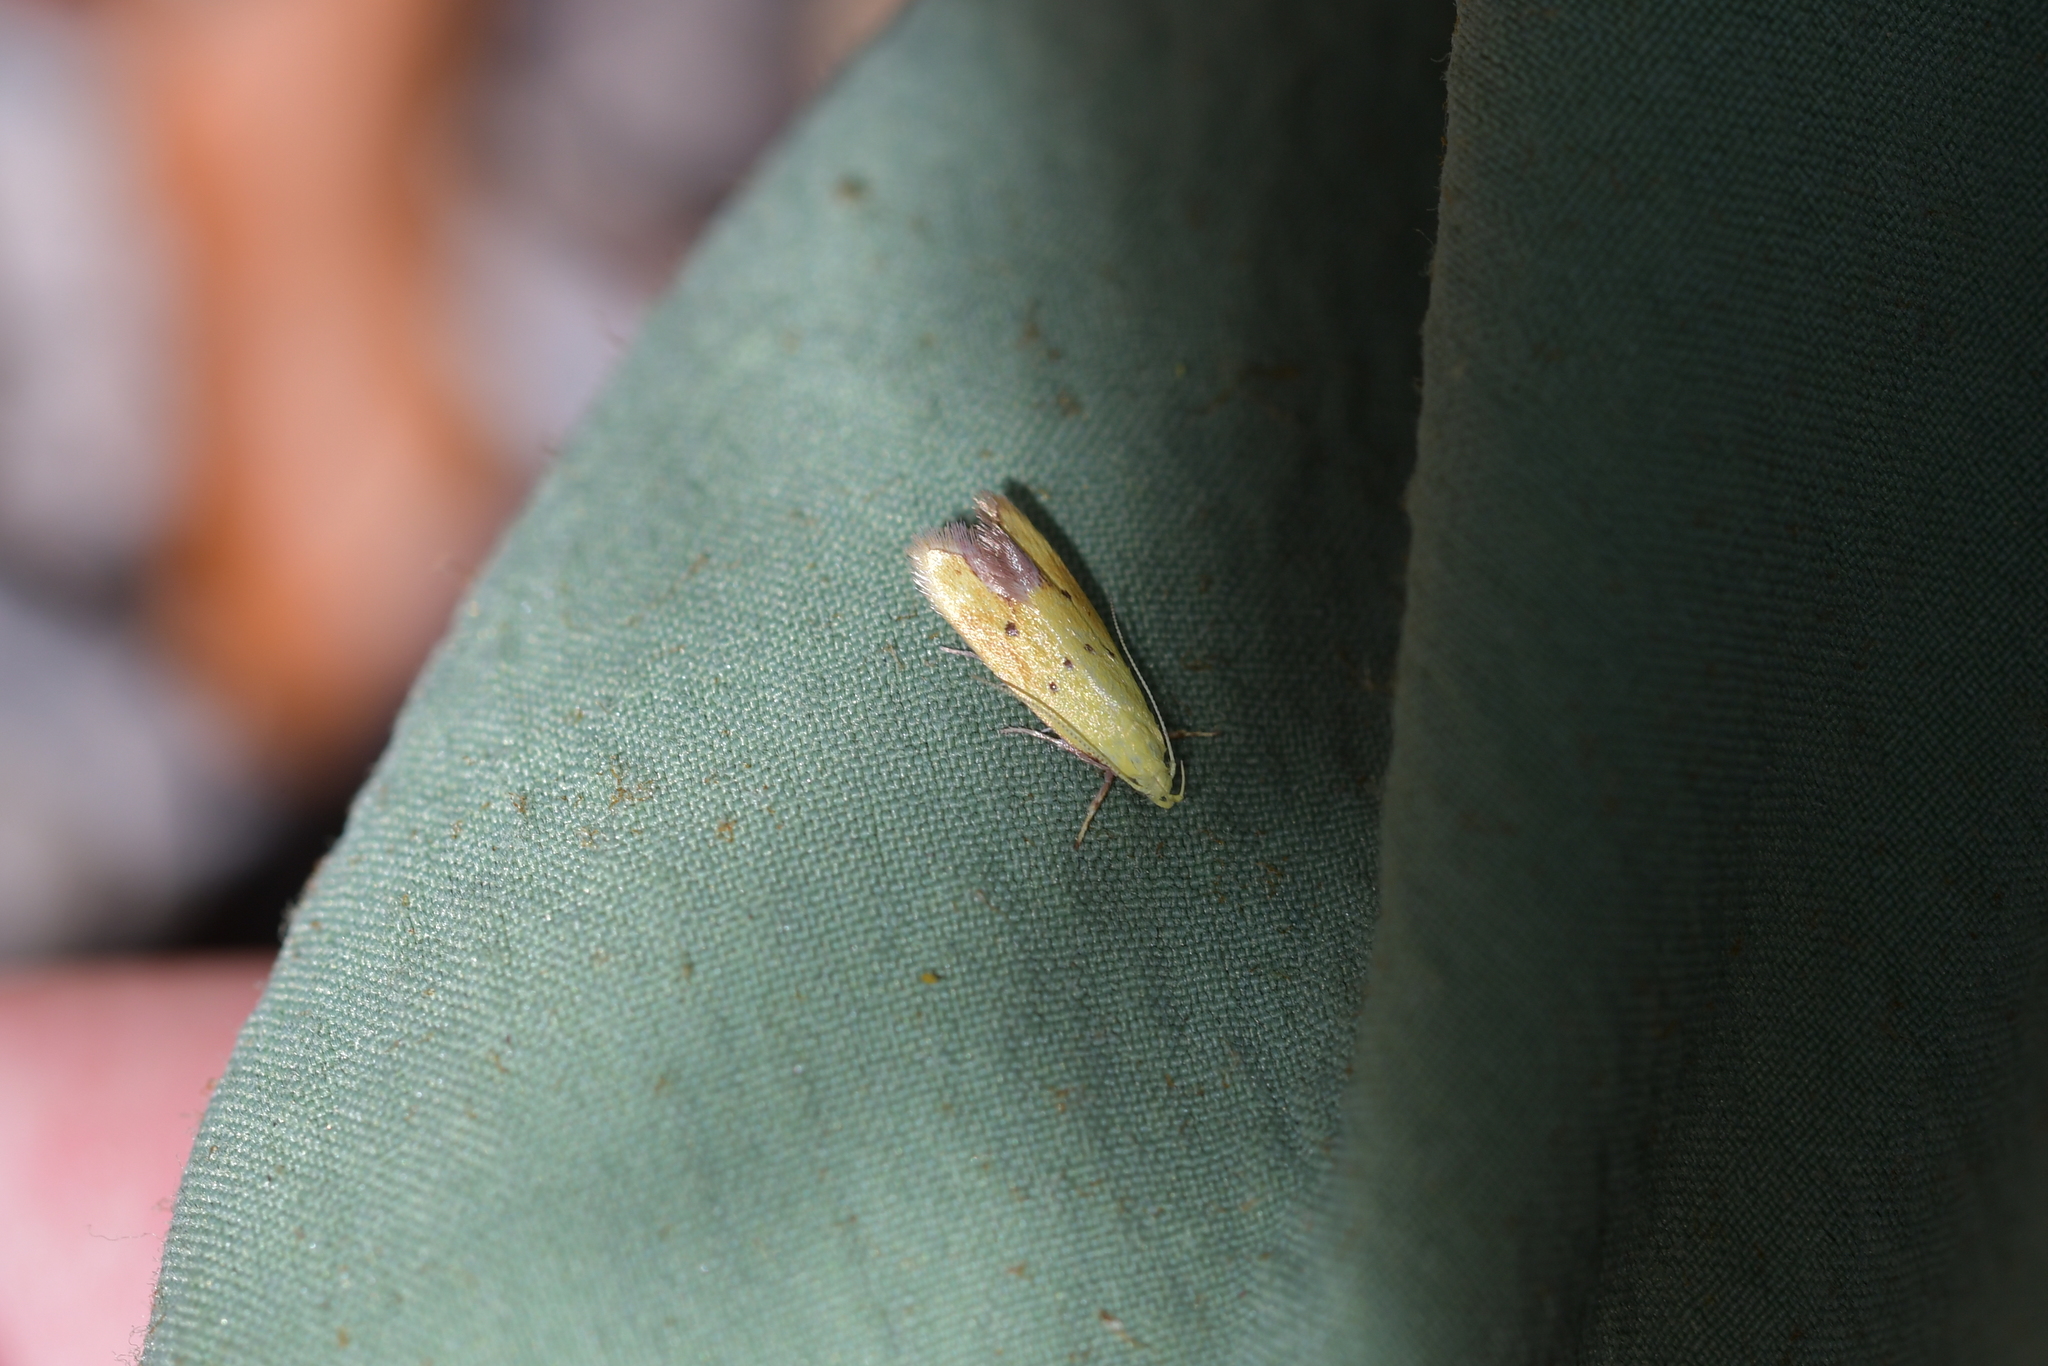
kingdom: Animalia
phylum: Arthropoda
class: Insecta
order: Lepidoptera
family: Oecophoridae
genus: Gymnobathra
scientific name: Gymnobathra flavidella
